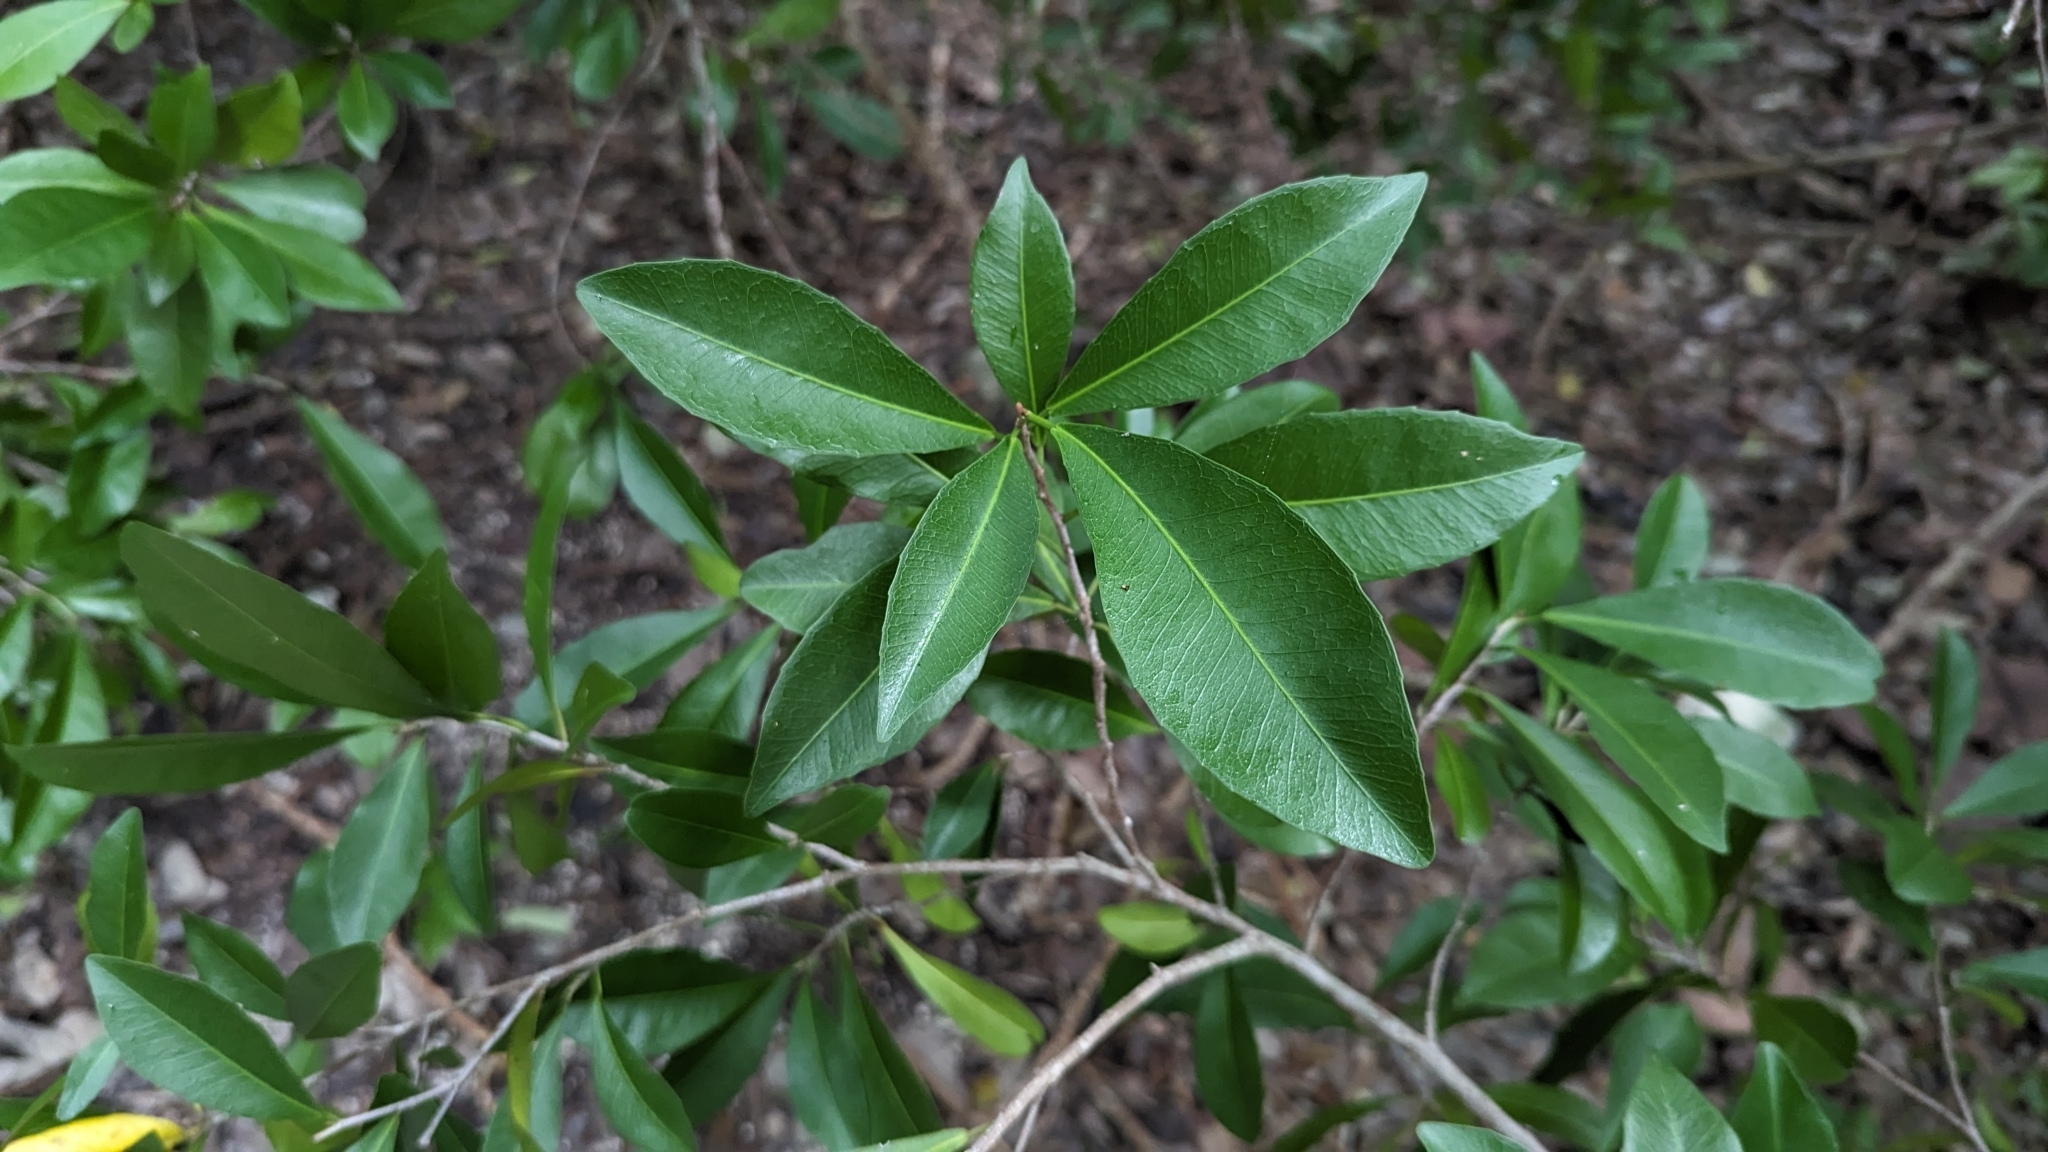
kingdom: Plantae
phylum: Tracheophyta
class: Magnoliopsida
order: Malpighiales
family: Euphorbiaceae
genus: Gymnanthes
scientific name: Gymnanthes lucida
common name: Oysterwood
